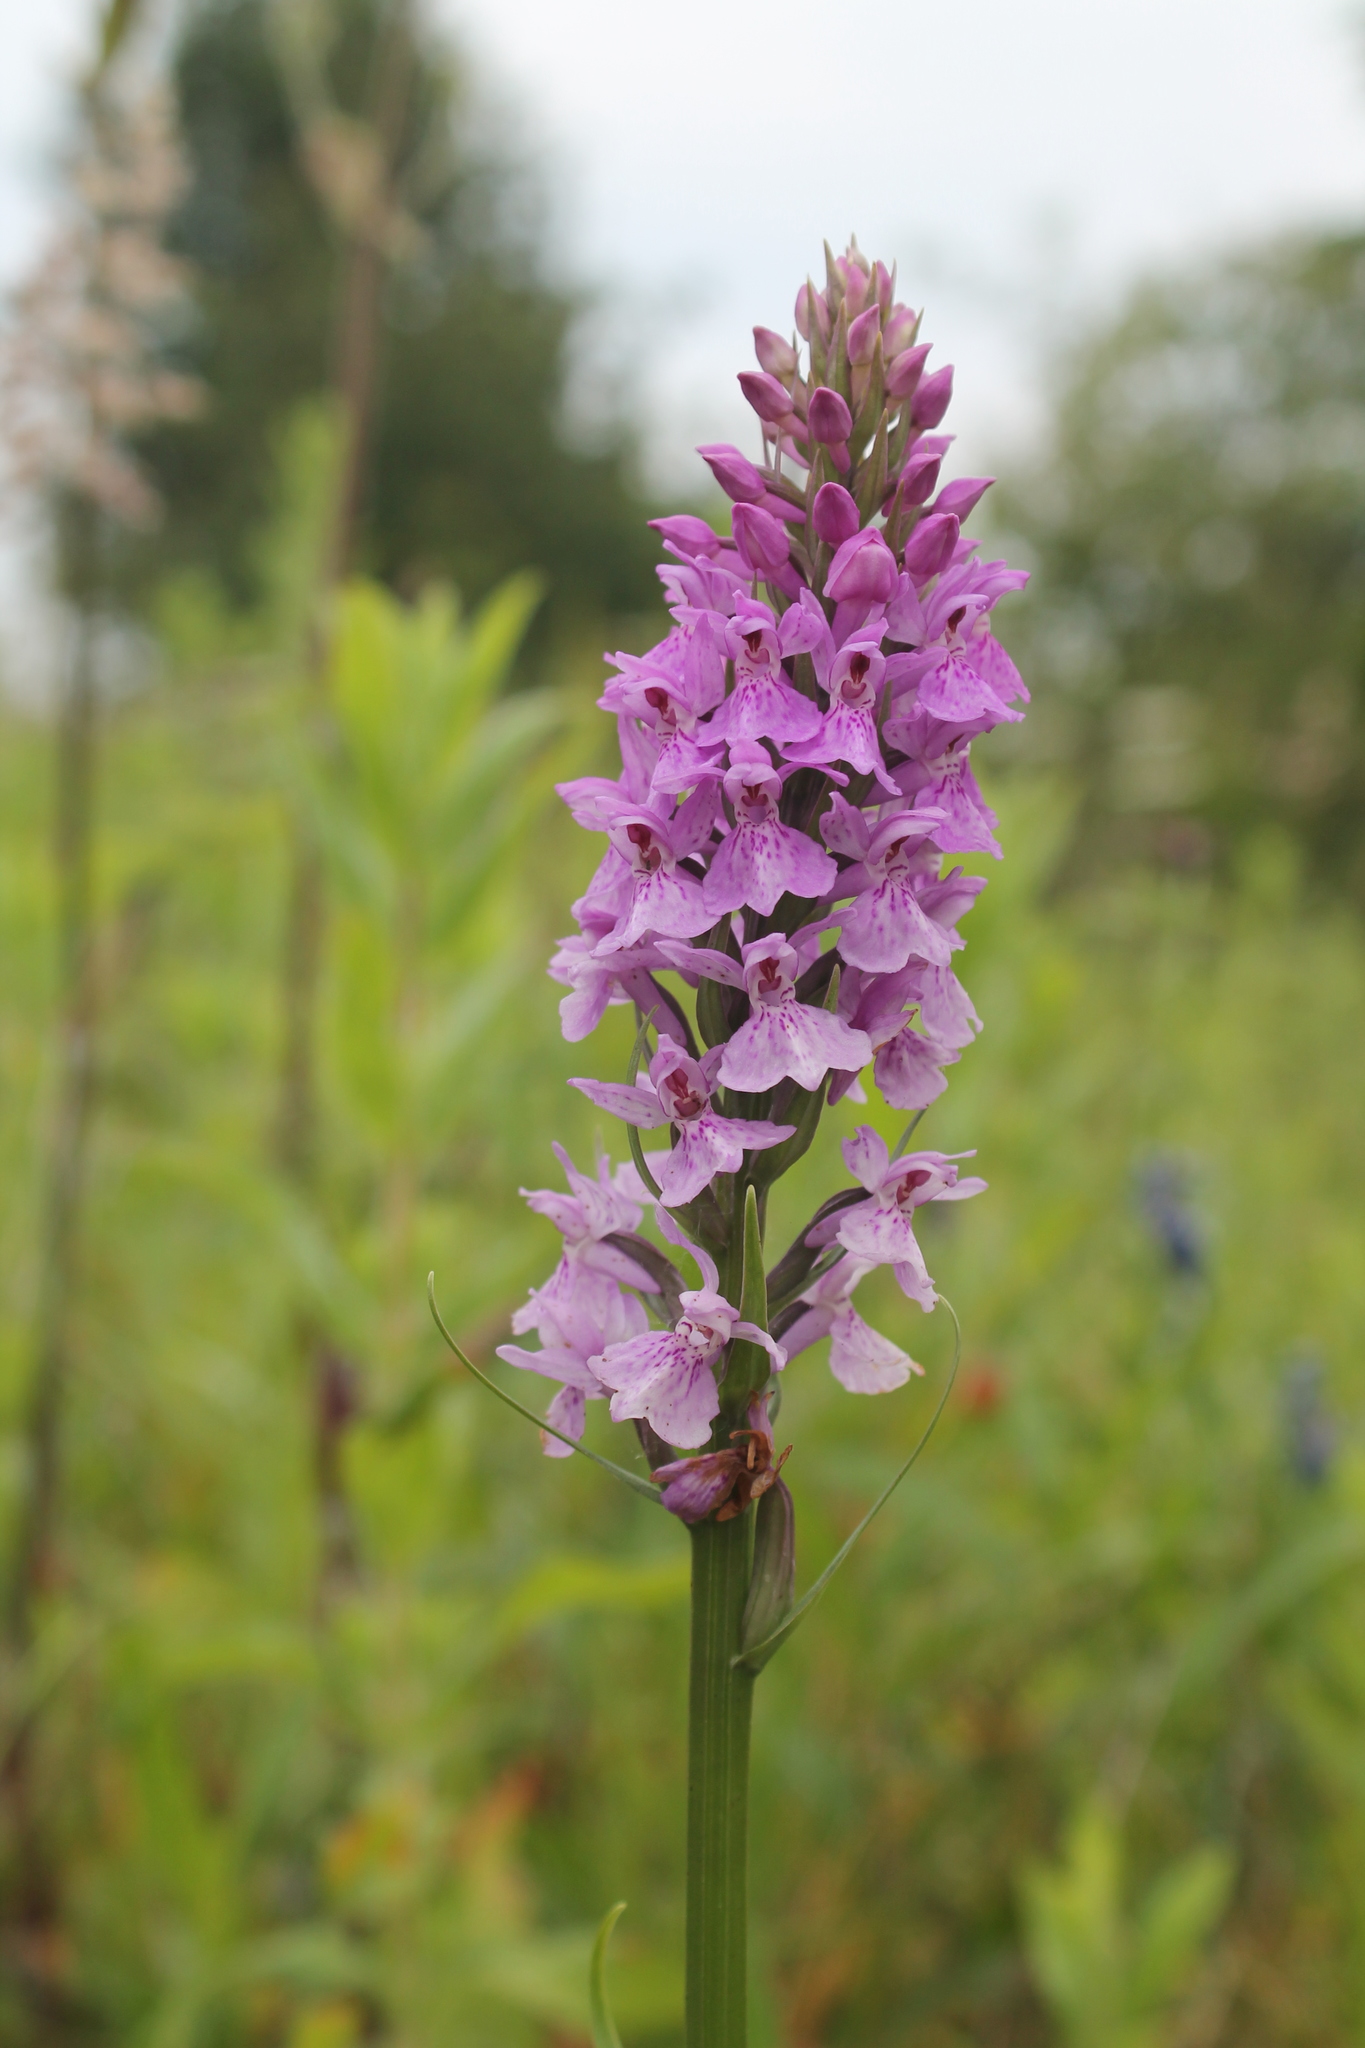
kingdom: Plantae
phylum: Tracheophyta
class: Liliopsida
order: Asparagales
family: Orchidaceae
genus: Dactylorhiza
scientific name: Dactylorhiza majalis
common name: Marsh orchid
